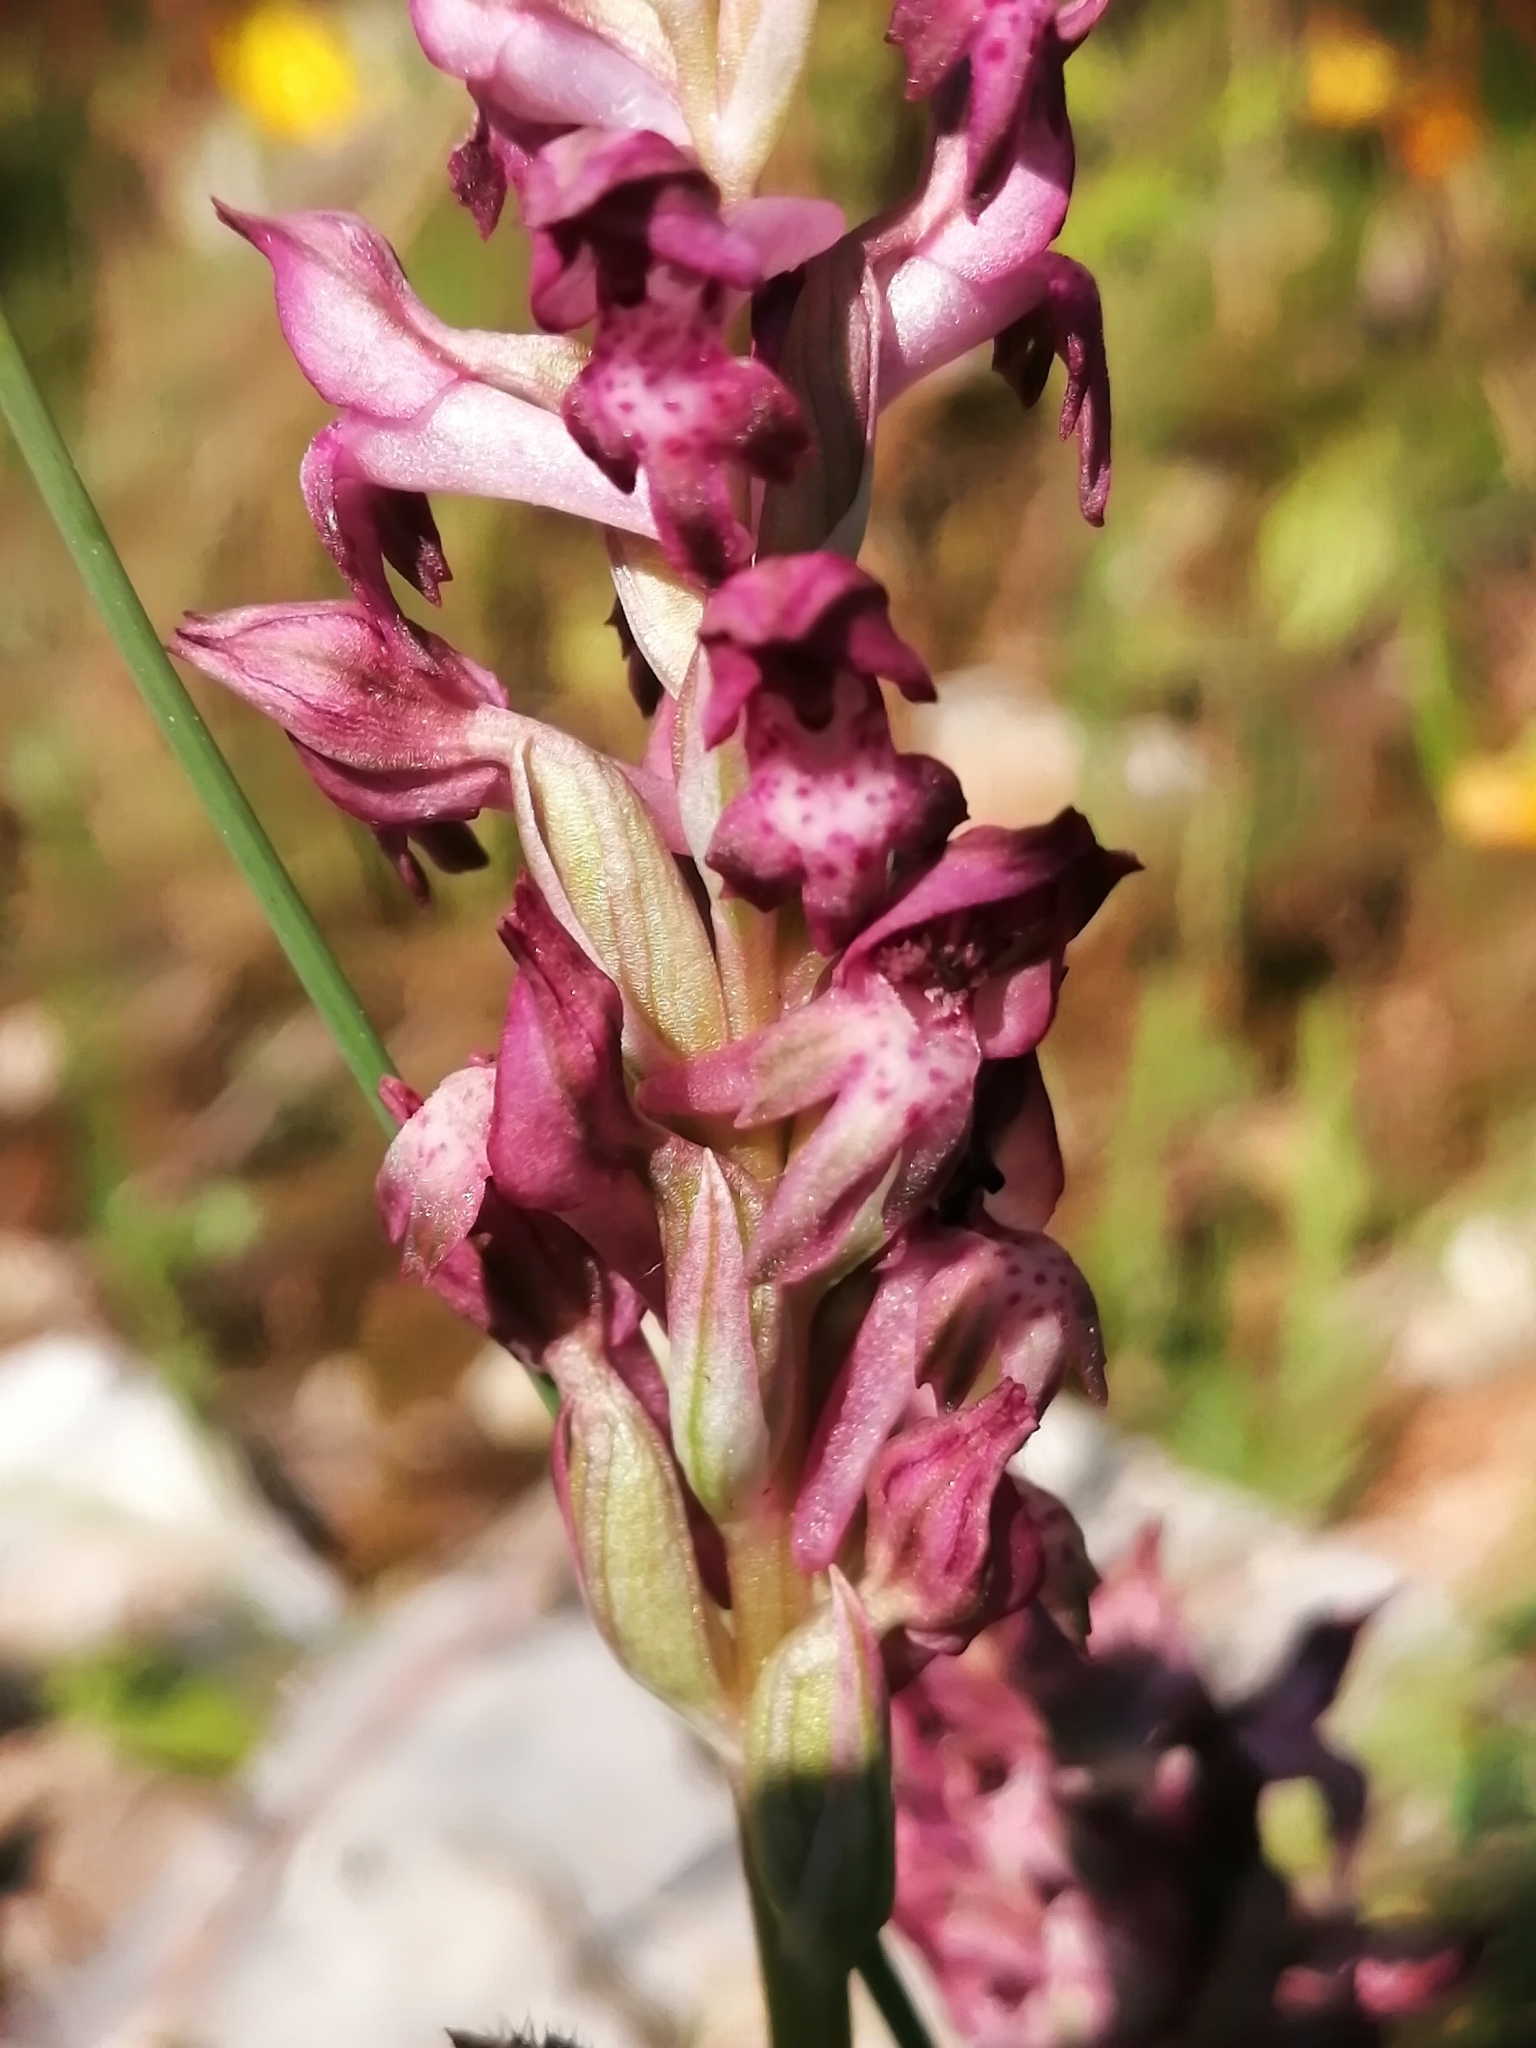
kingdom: Plantae
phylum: Tracheophyta
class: Liliopsida
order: Asparagales
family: Orchidaceae
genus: Anacamptis
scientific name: Anacamptis coriophora
